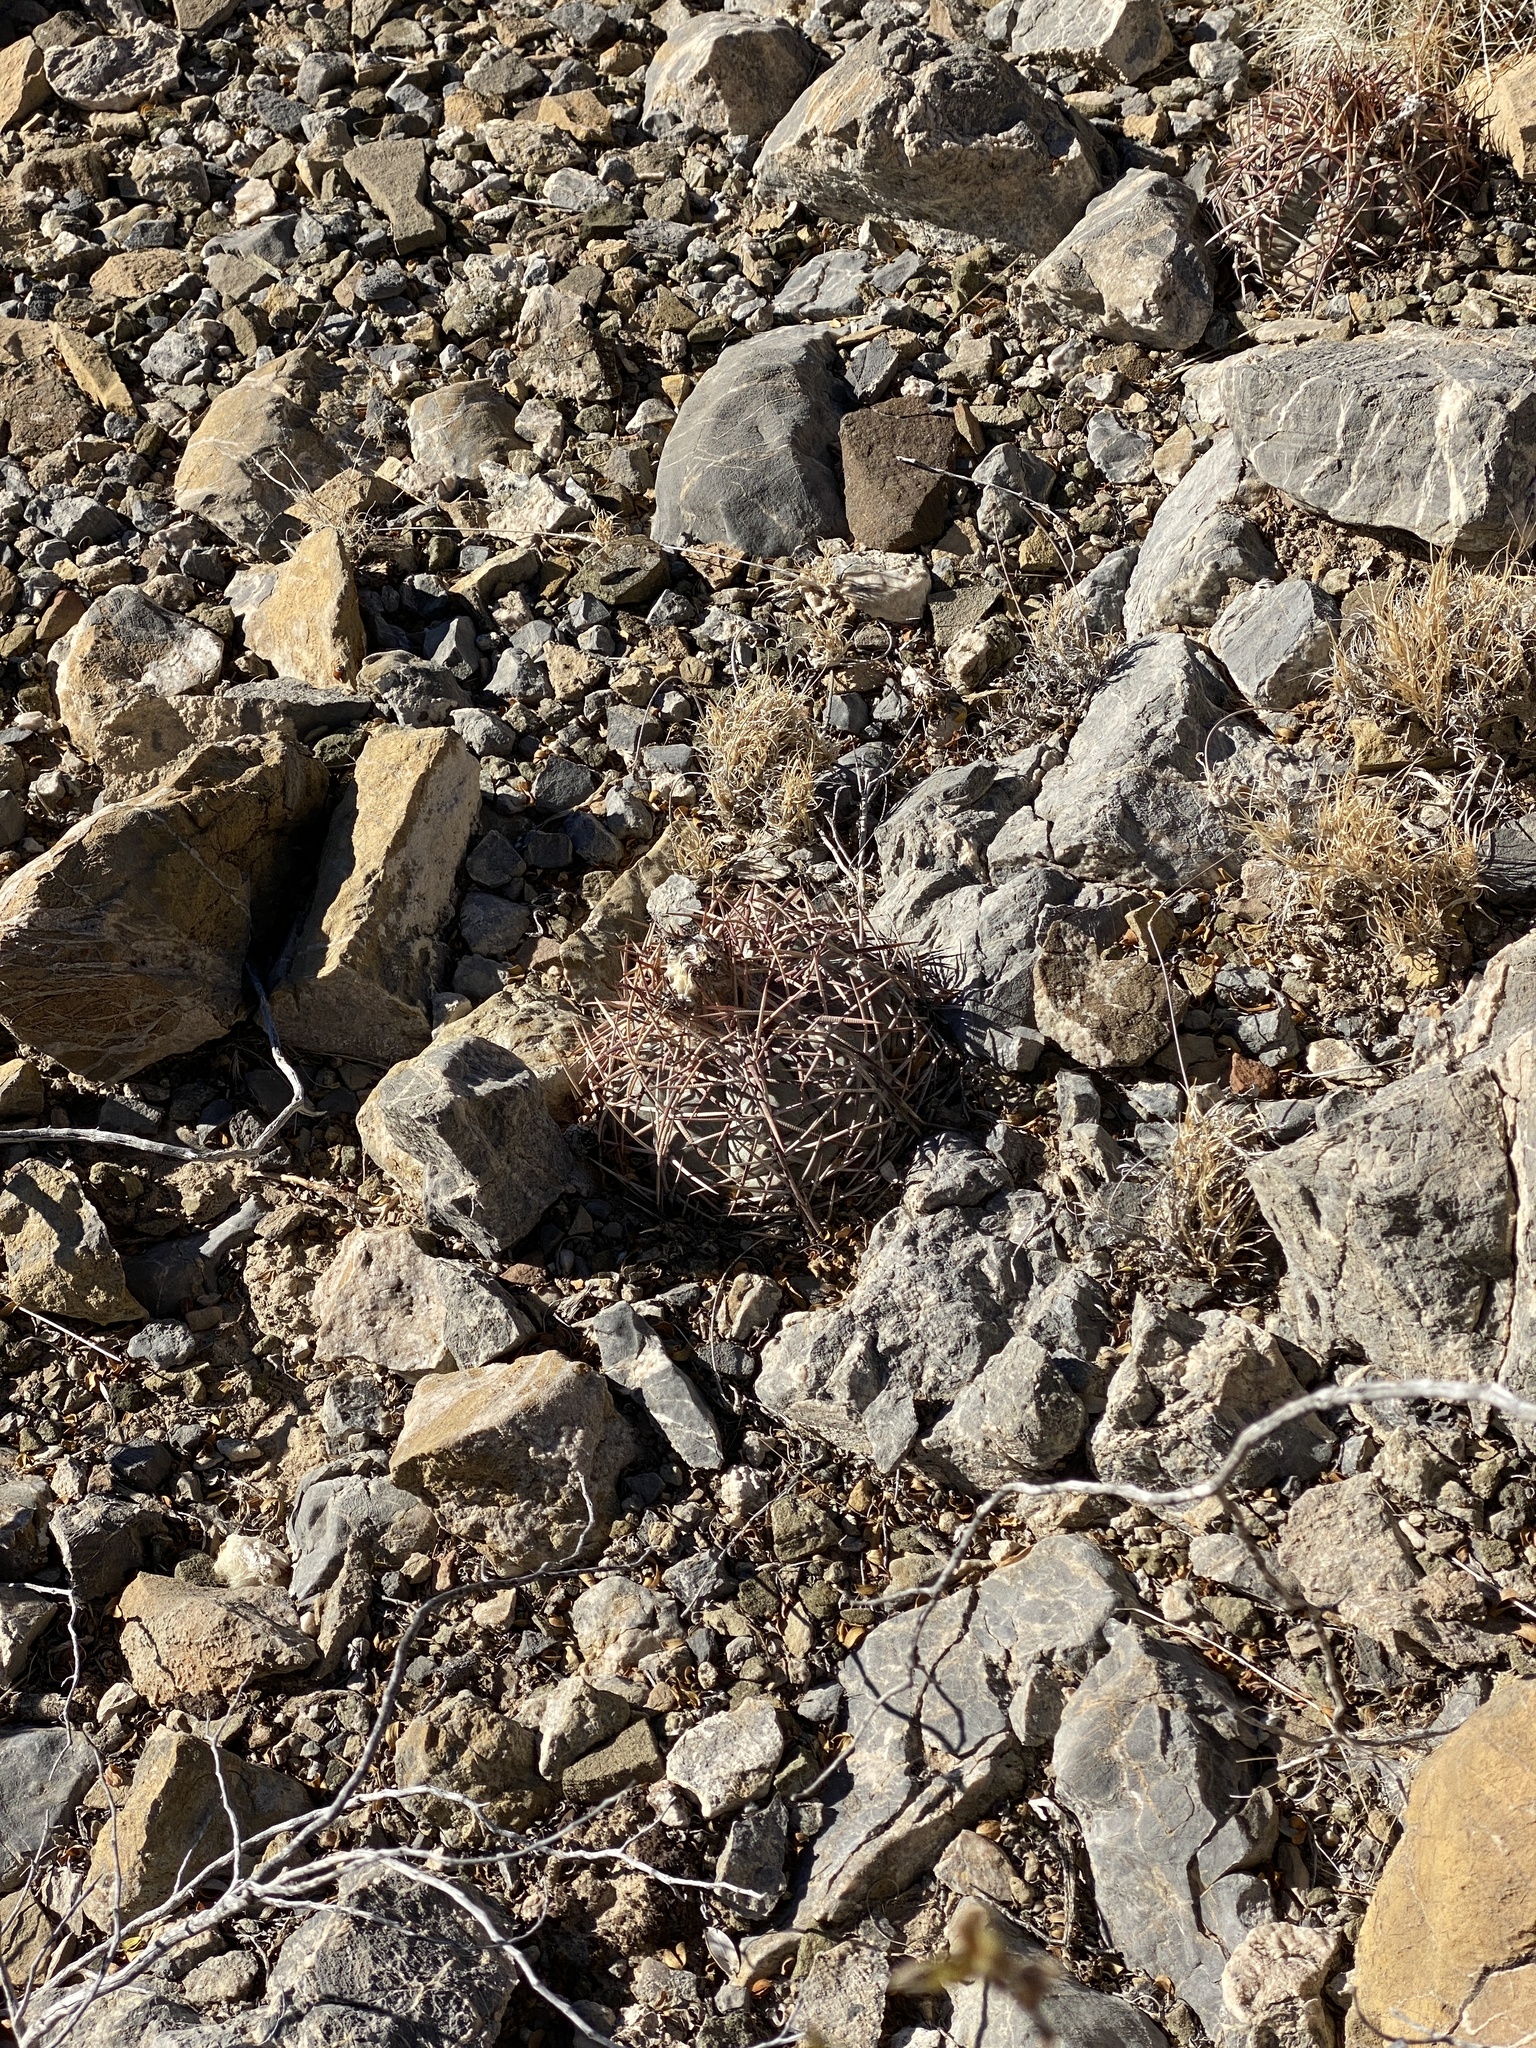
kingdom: Plantae
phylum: Tracheophyta
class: Magnoliopsida
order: Caryophyllales
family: Cactaceae
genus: Echinocactus
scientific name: Echinocactus horizonthalonius
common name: Devilshead
